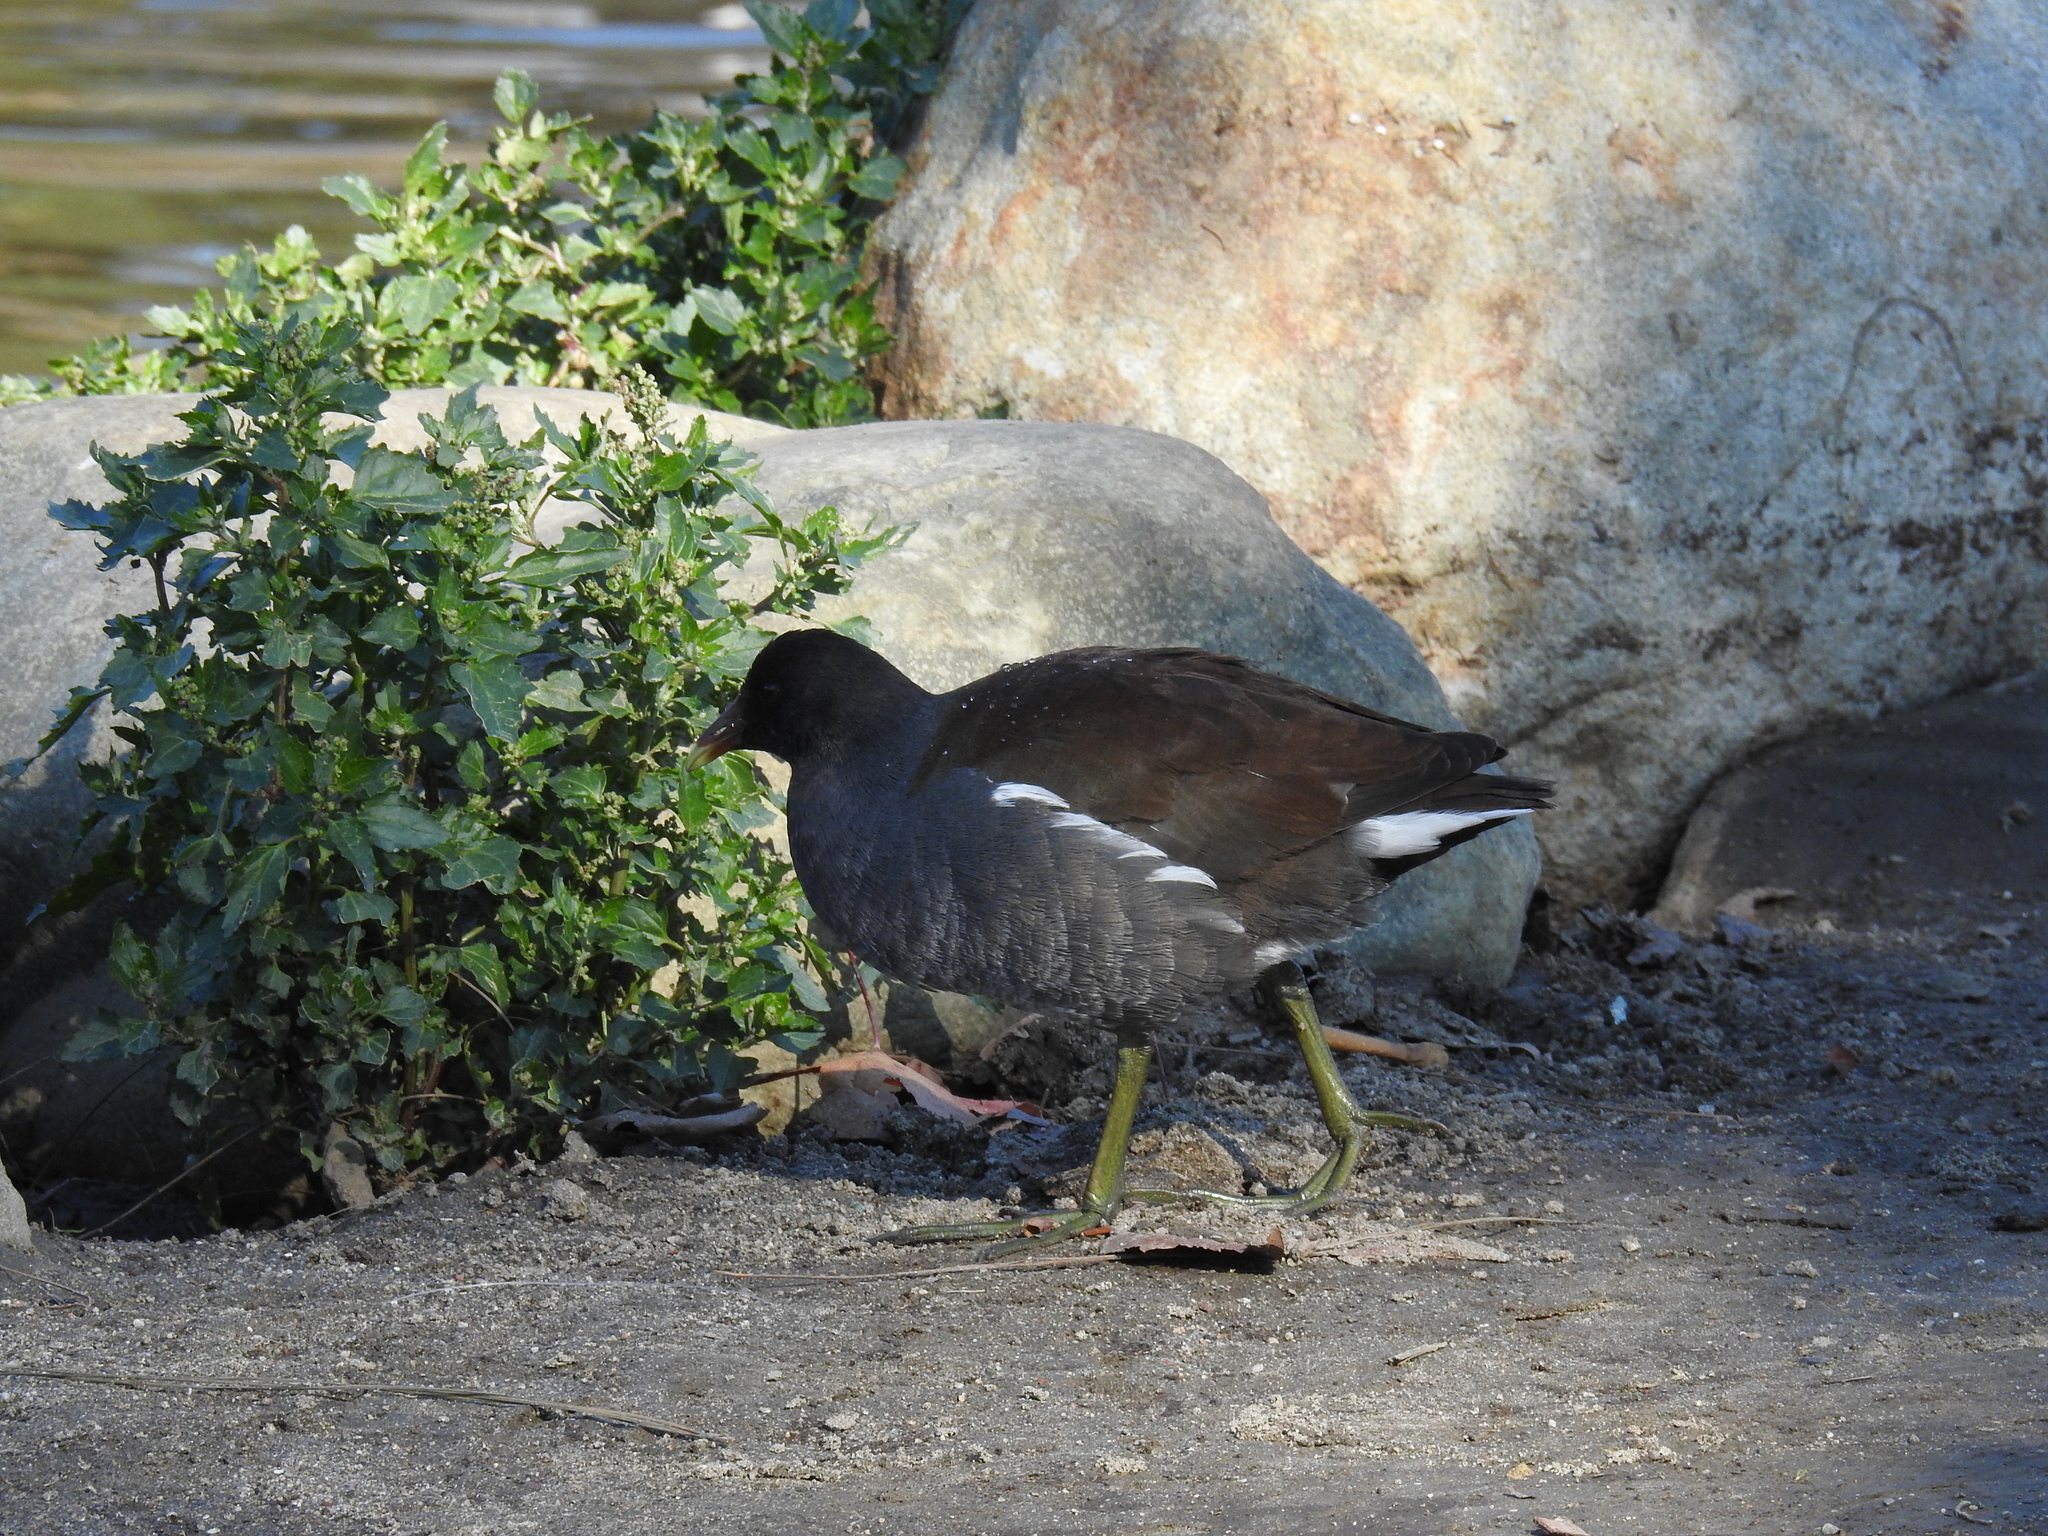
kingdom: Animalia
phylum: Chordata
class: Aves
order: Gruiformes
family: Rallidae
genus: Gallinula
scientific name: Gallinula chloropus
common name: Common moorhen
